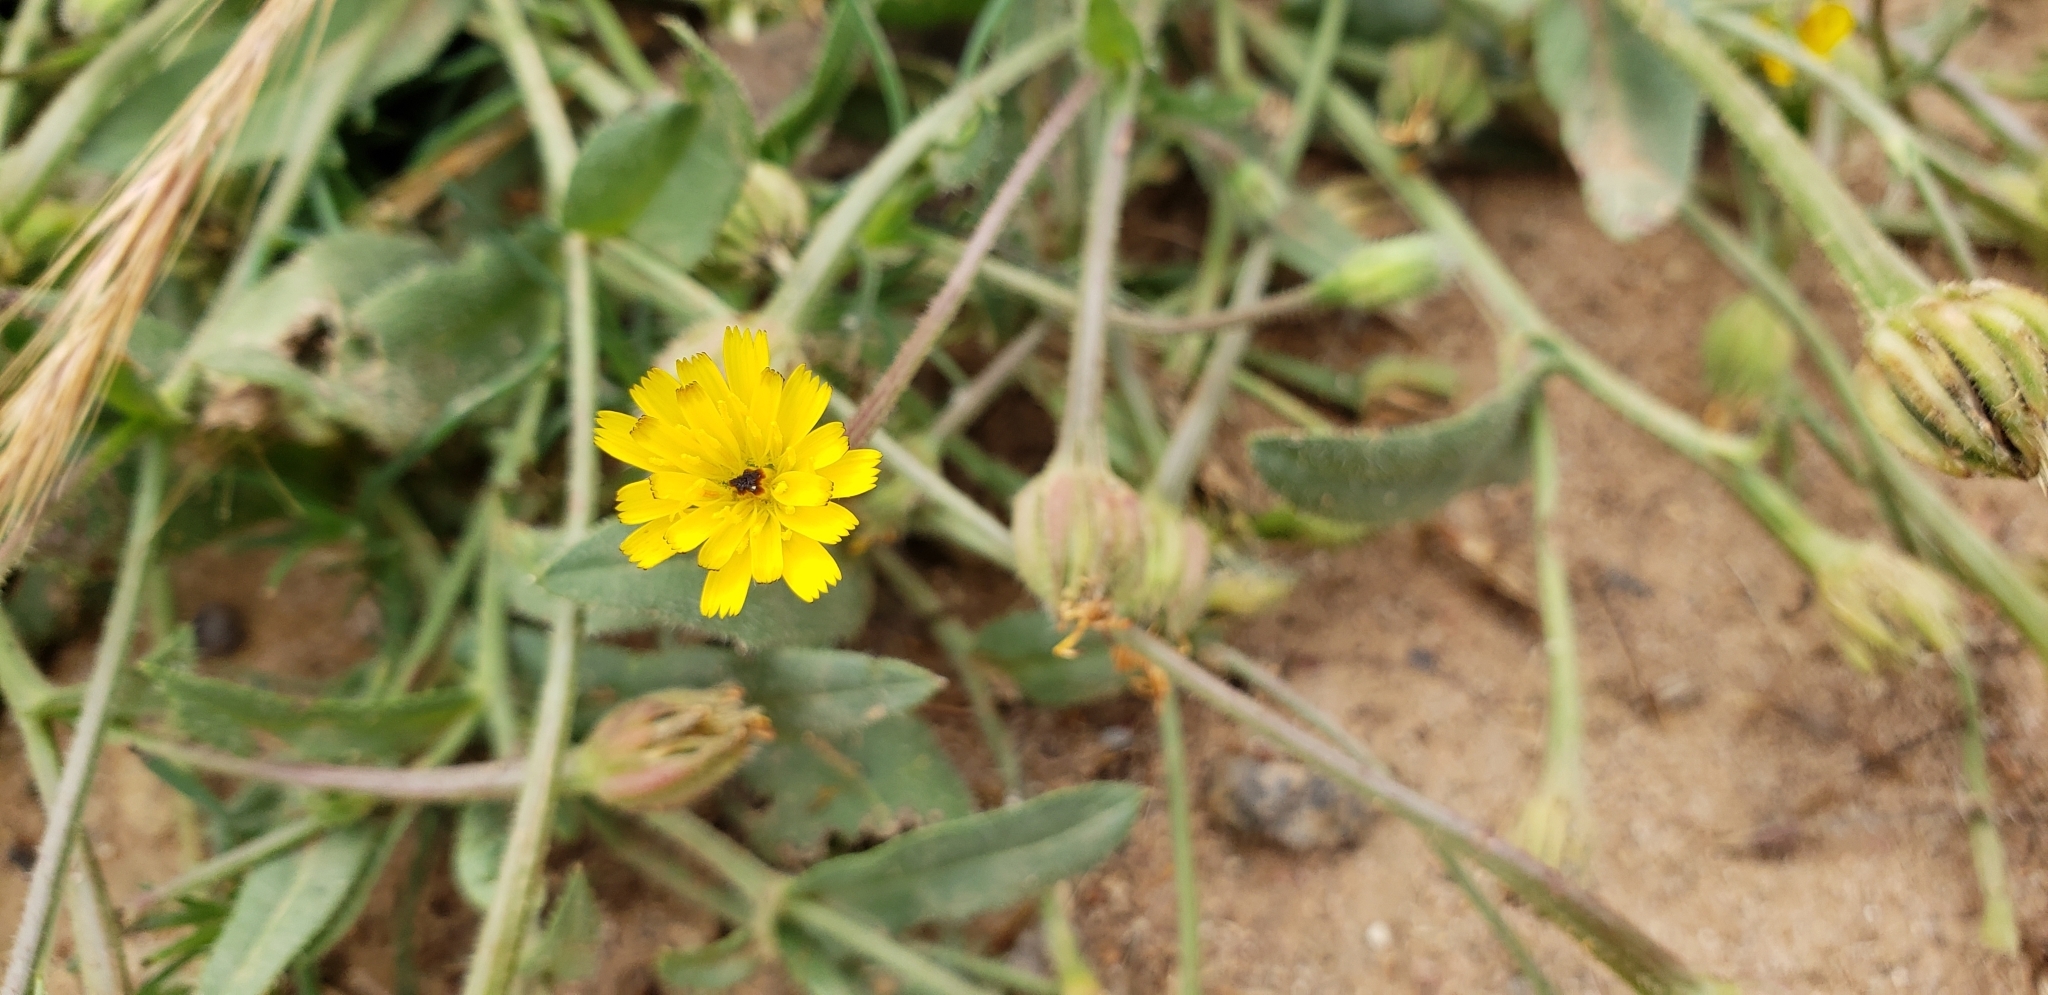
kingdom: Plantae
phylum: Tracheophyta
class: Magnoliopsida
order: Asterales
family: Asteraceae
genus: Hedypnois
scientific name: Hedypnois rhagadioloides
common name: Cretan weed
